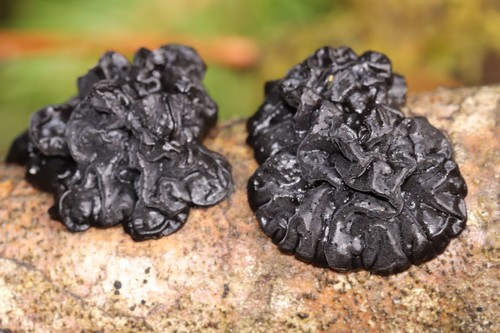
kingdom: Fungi
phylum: Basidiomycota
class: Agaricomycetes
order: Auriculariales
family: Auriculariaceae
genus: Exidia
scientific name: Exidia glandulosa
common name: Witches' butter
